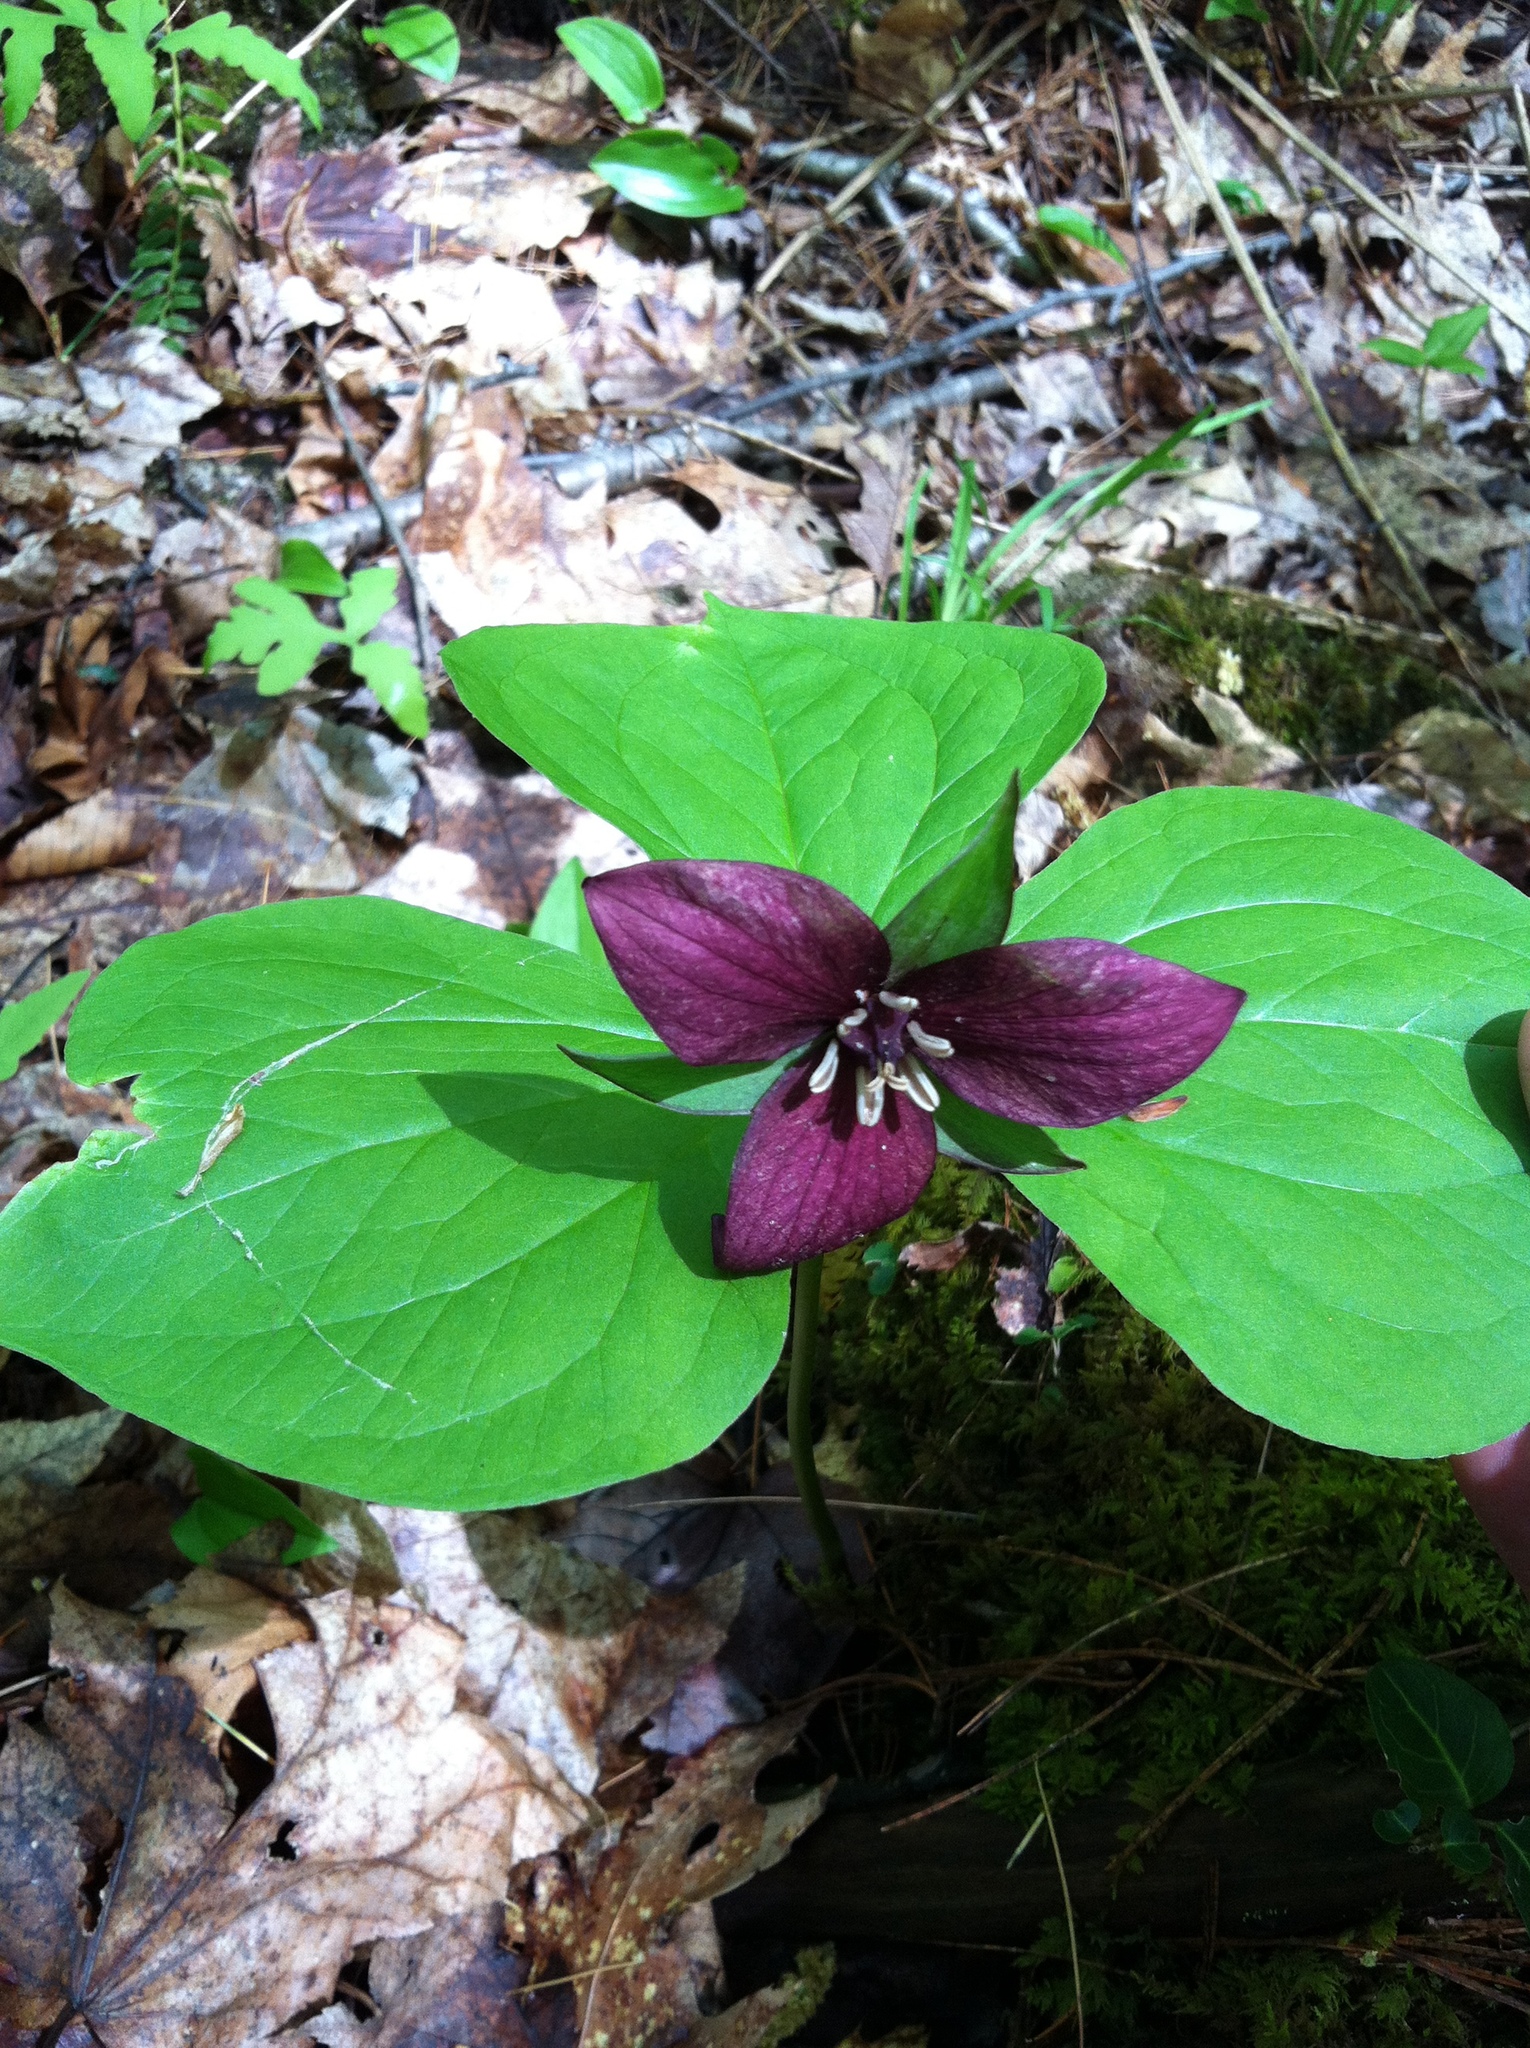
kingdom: Plantae
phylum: Tracheophyta
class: Liliopsida
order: Liliales
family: Melanthiaceae
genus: Trillium
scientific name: Trillium erectum
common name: Purple trillium
